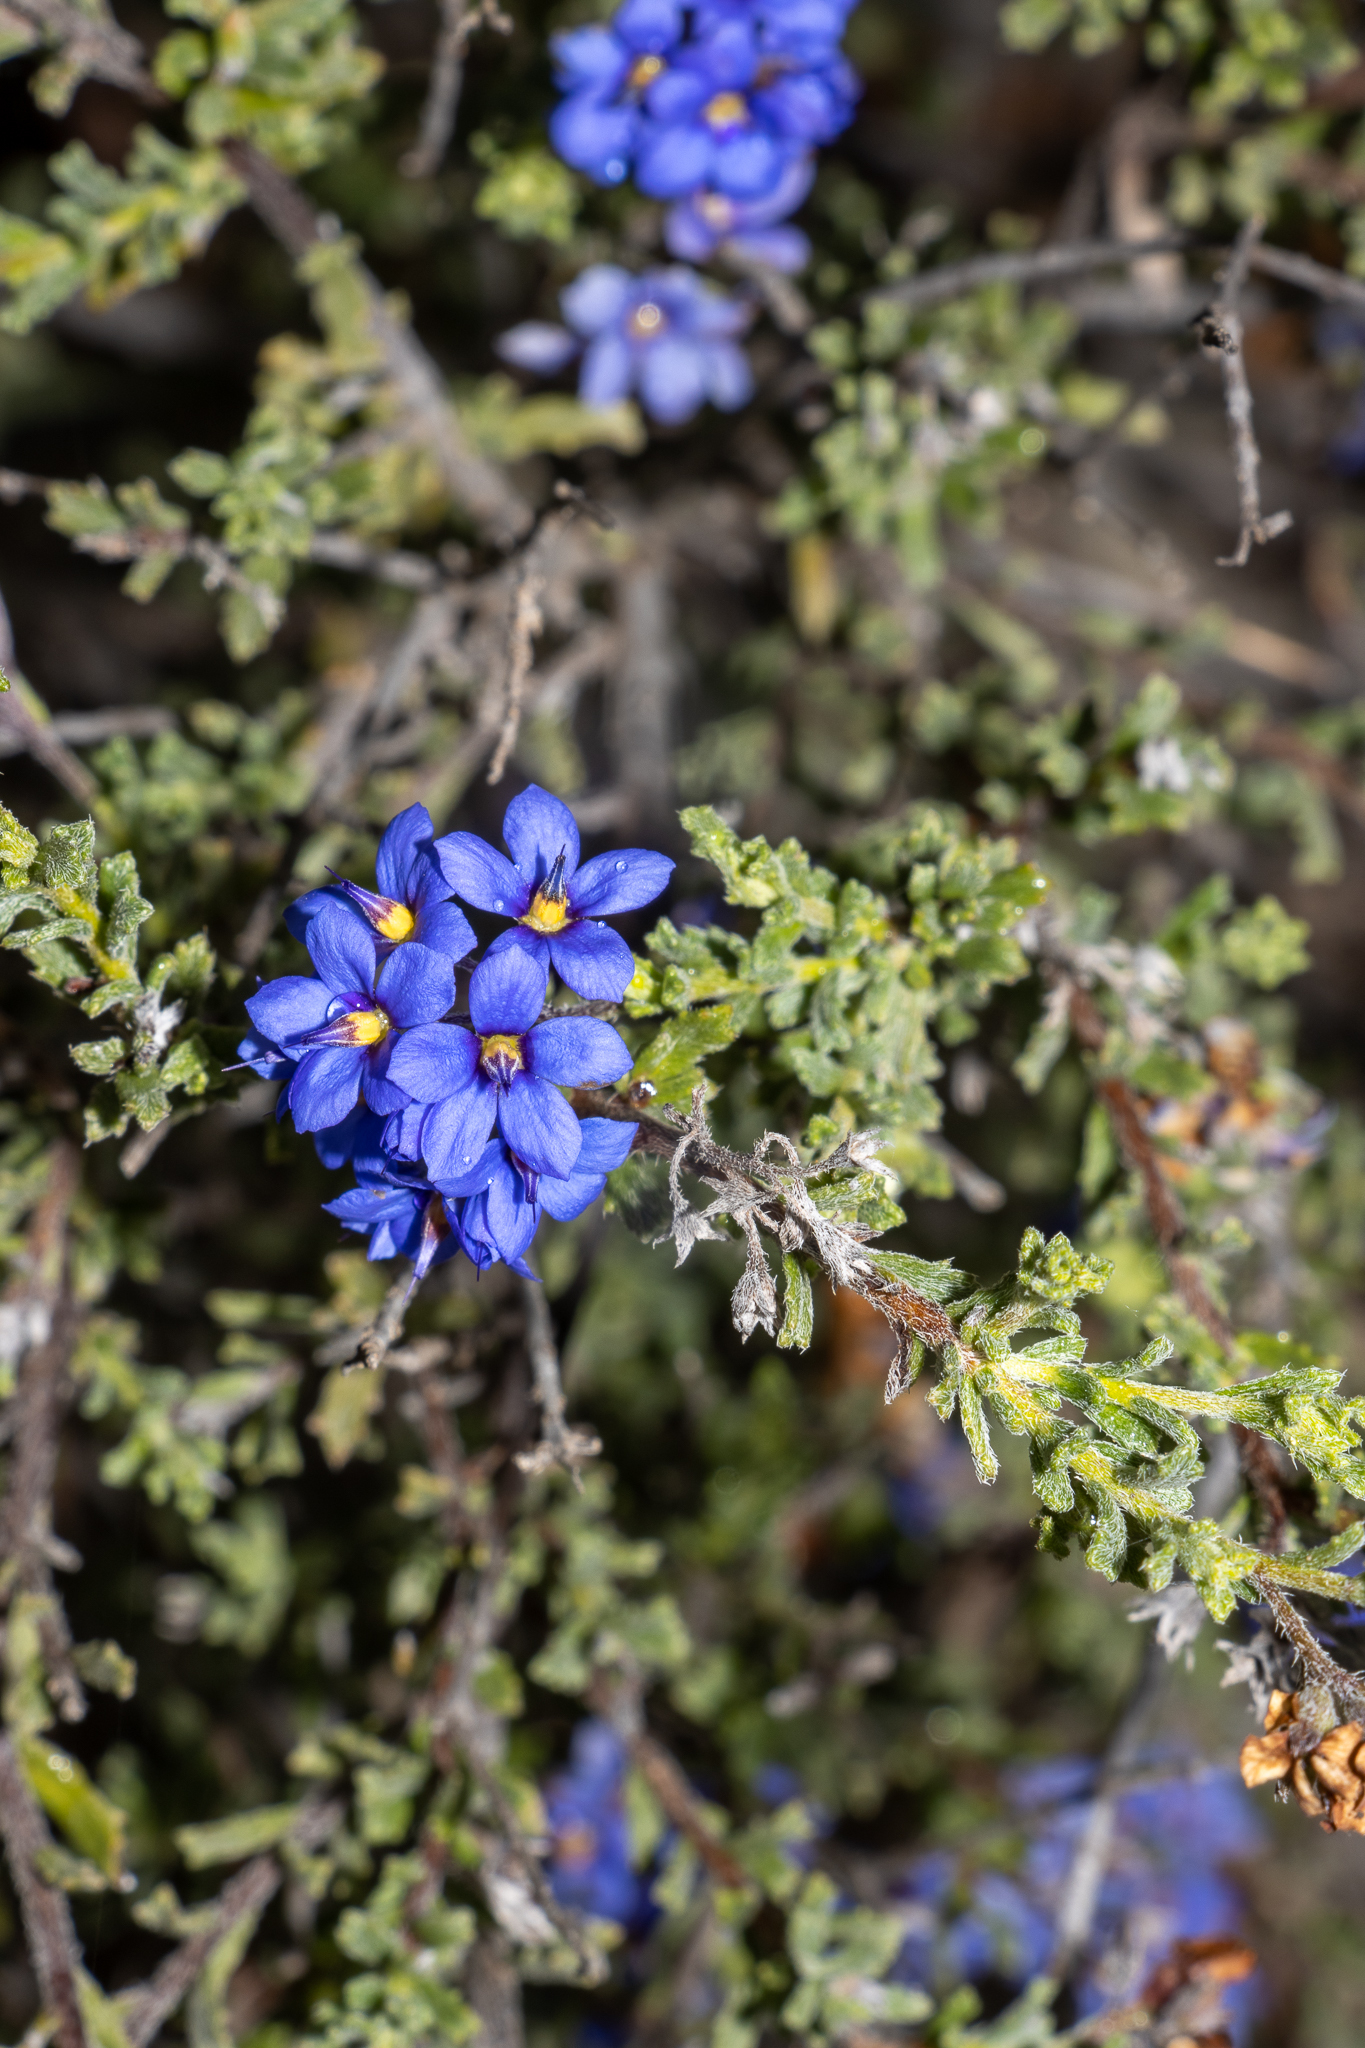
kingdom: Plantae
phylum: Tracheophyta
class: Magnoliopsida
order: Boraginales
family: Ehretiaceae
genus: Halgania
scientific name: Halgania cyanea
